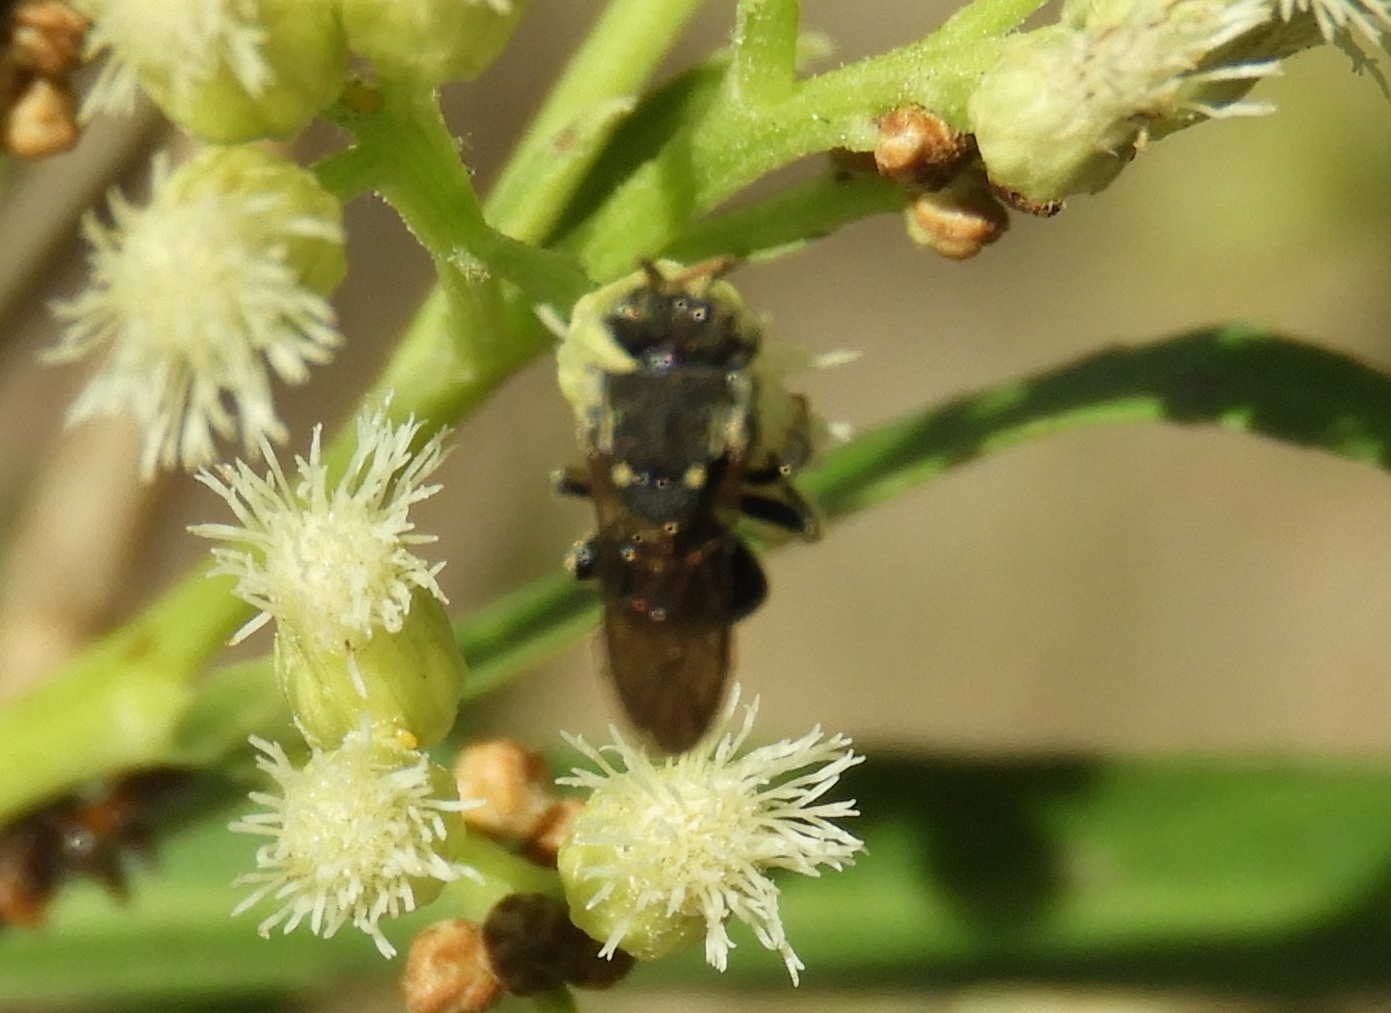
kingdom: Animalia
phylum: Arthropoda
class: Insecta
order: Hymenoptera
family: Apidae
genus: Nannotrigona
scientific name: Nannotrigona perilampoides
